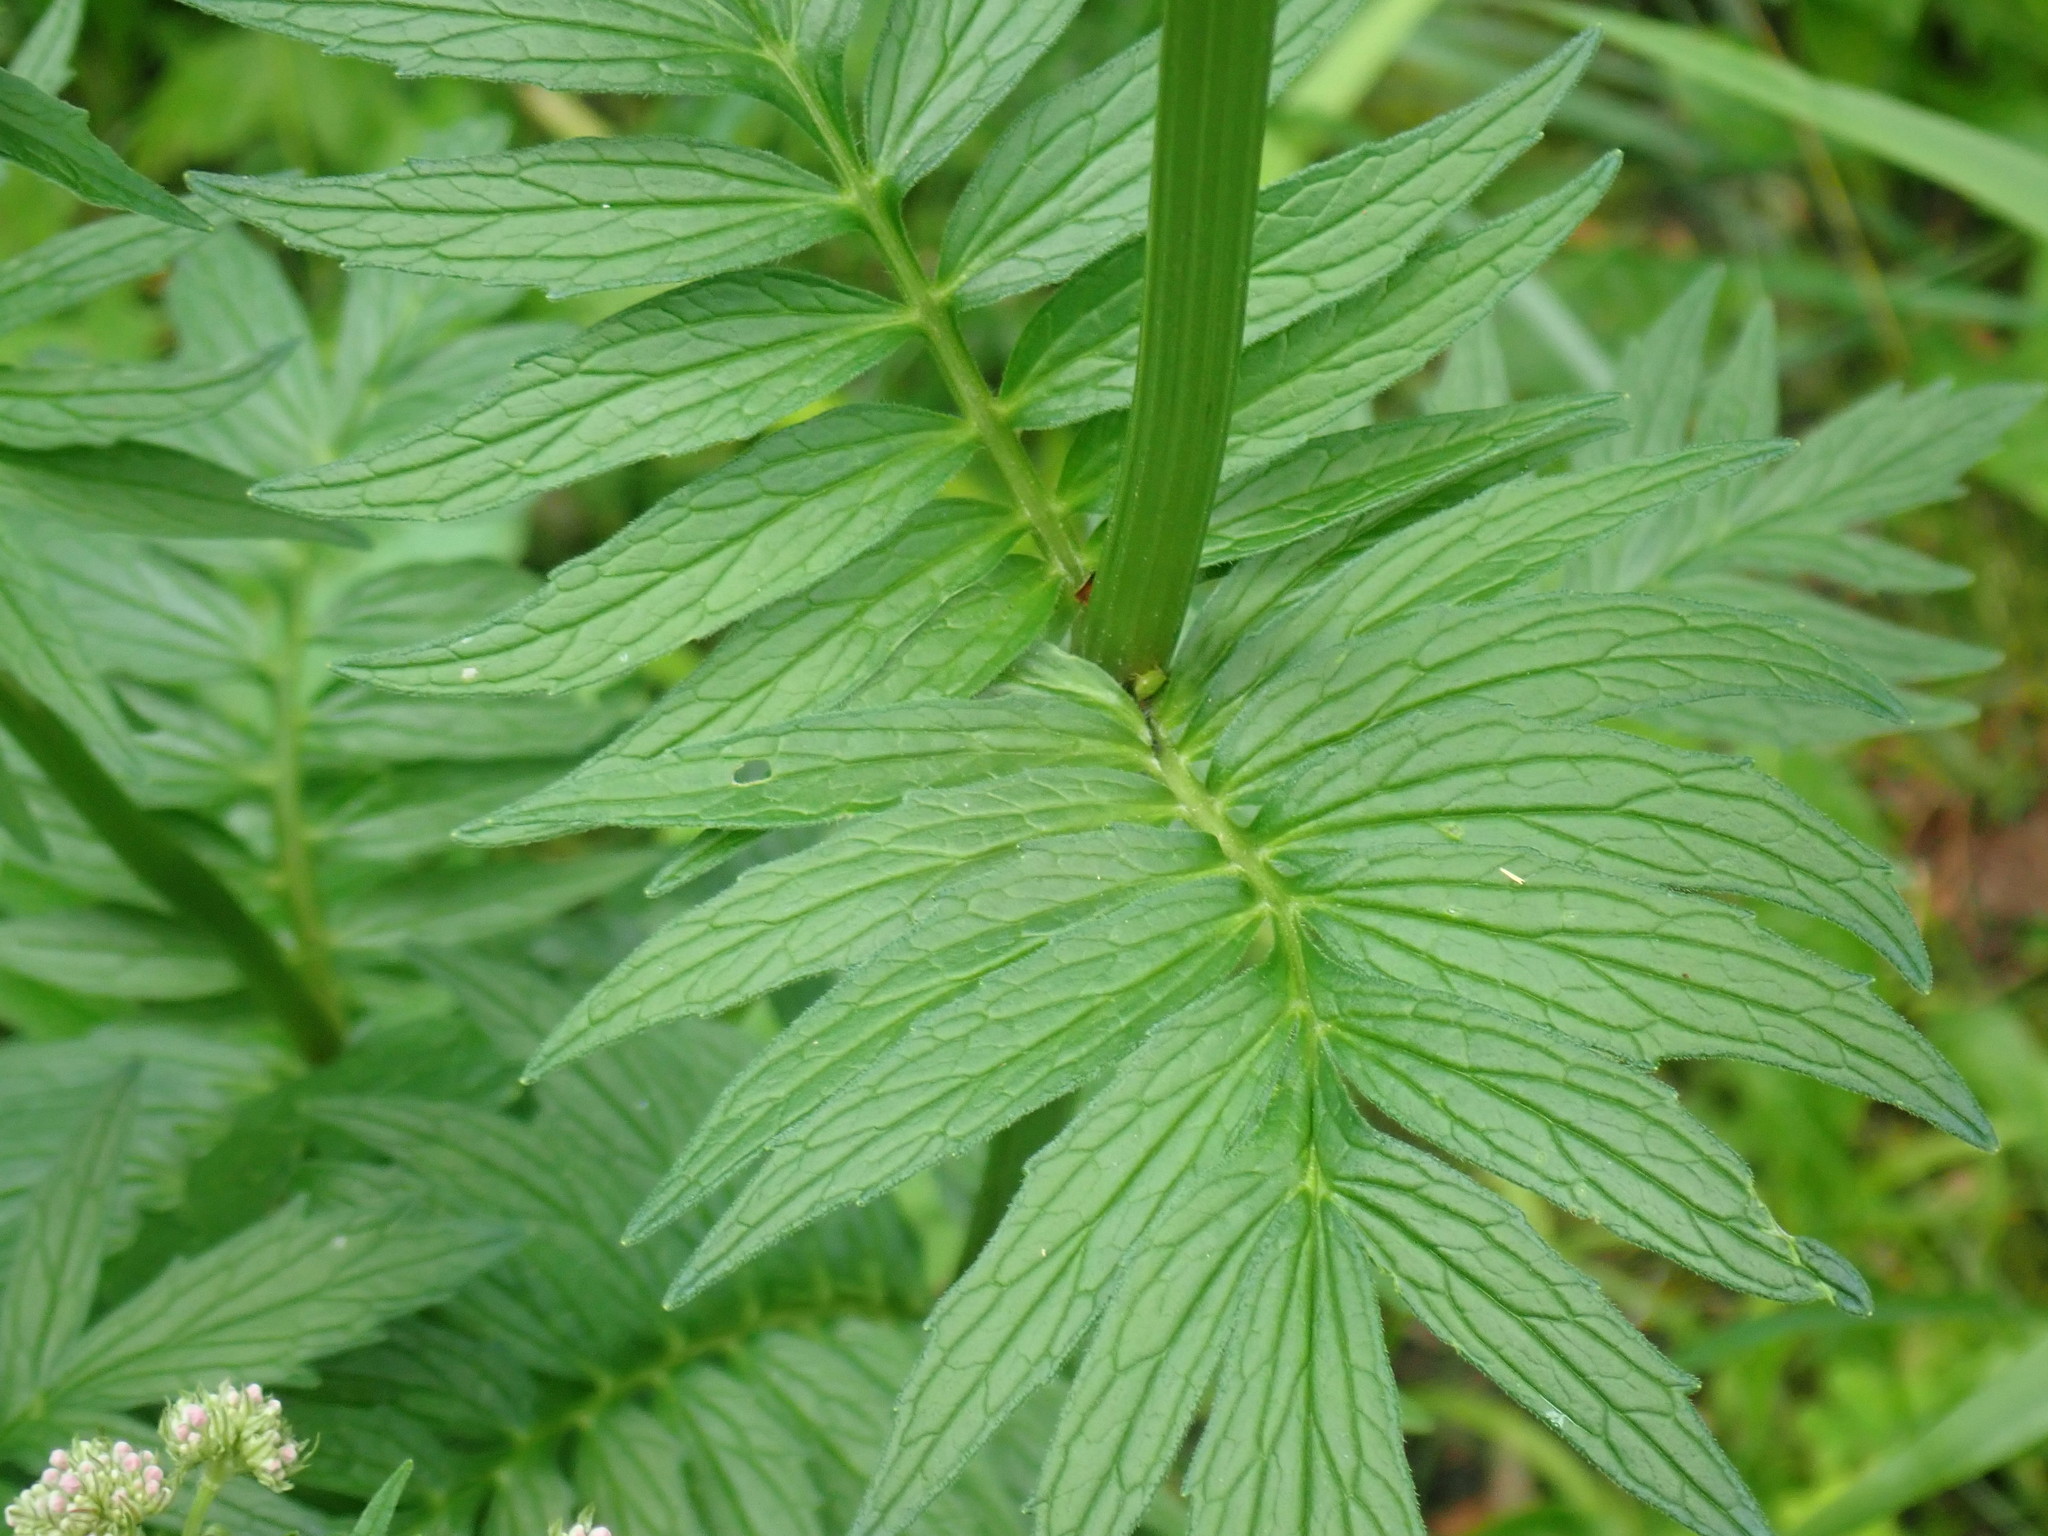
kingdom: Plantae
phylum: Tracheophyta
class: Magnoliopsida
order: Dipsacales
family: Caprifoliaceae
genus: Valeriana
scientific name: Valeriana officinalis
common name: Common valerian
